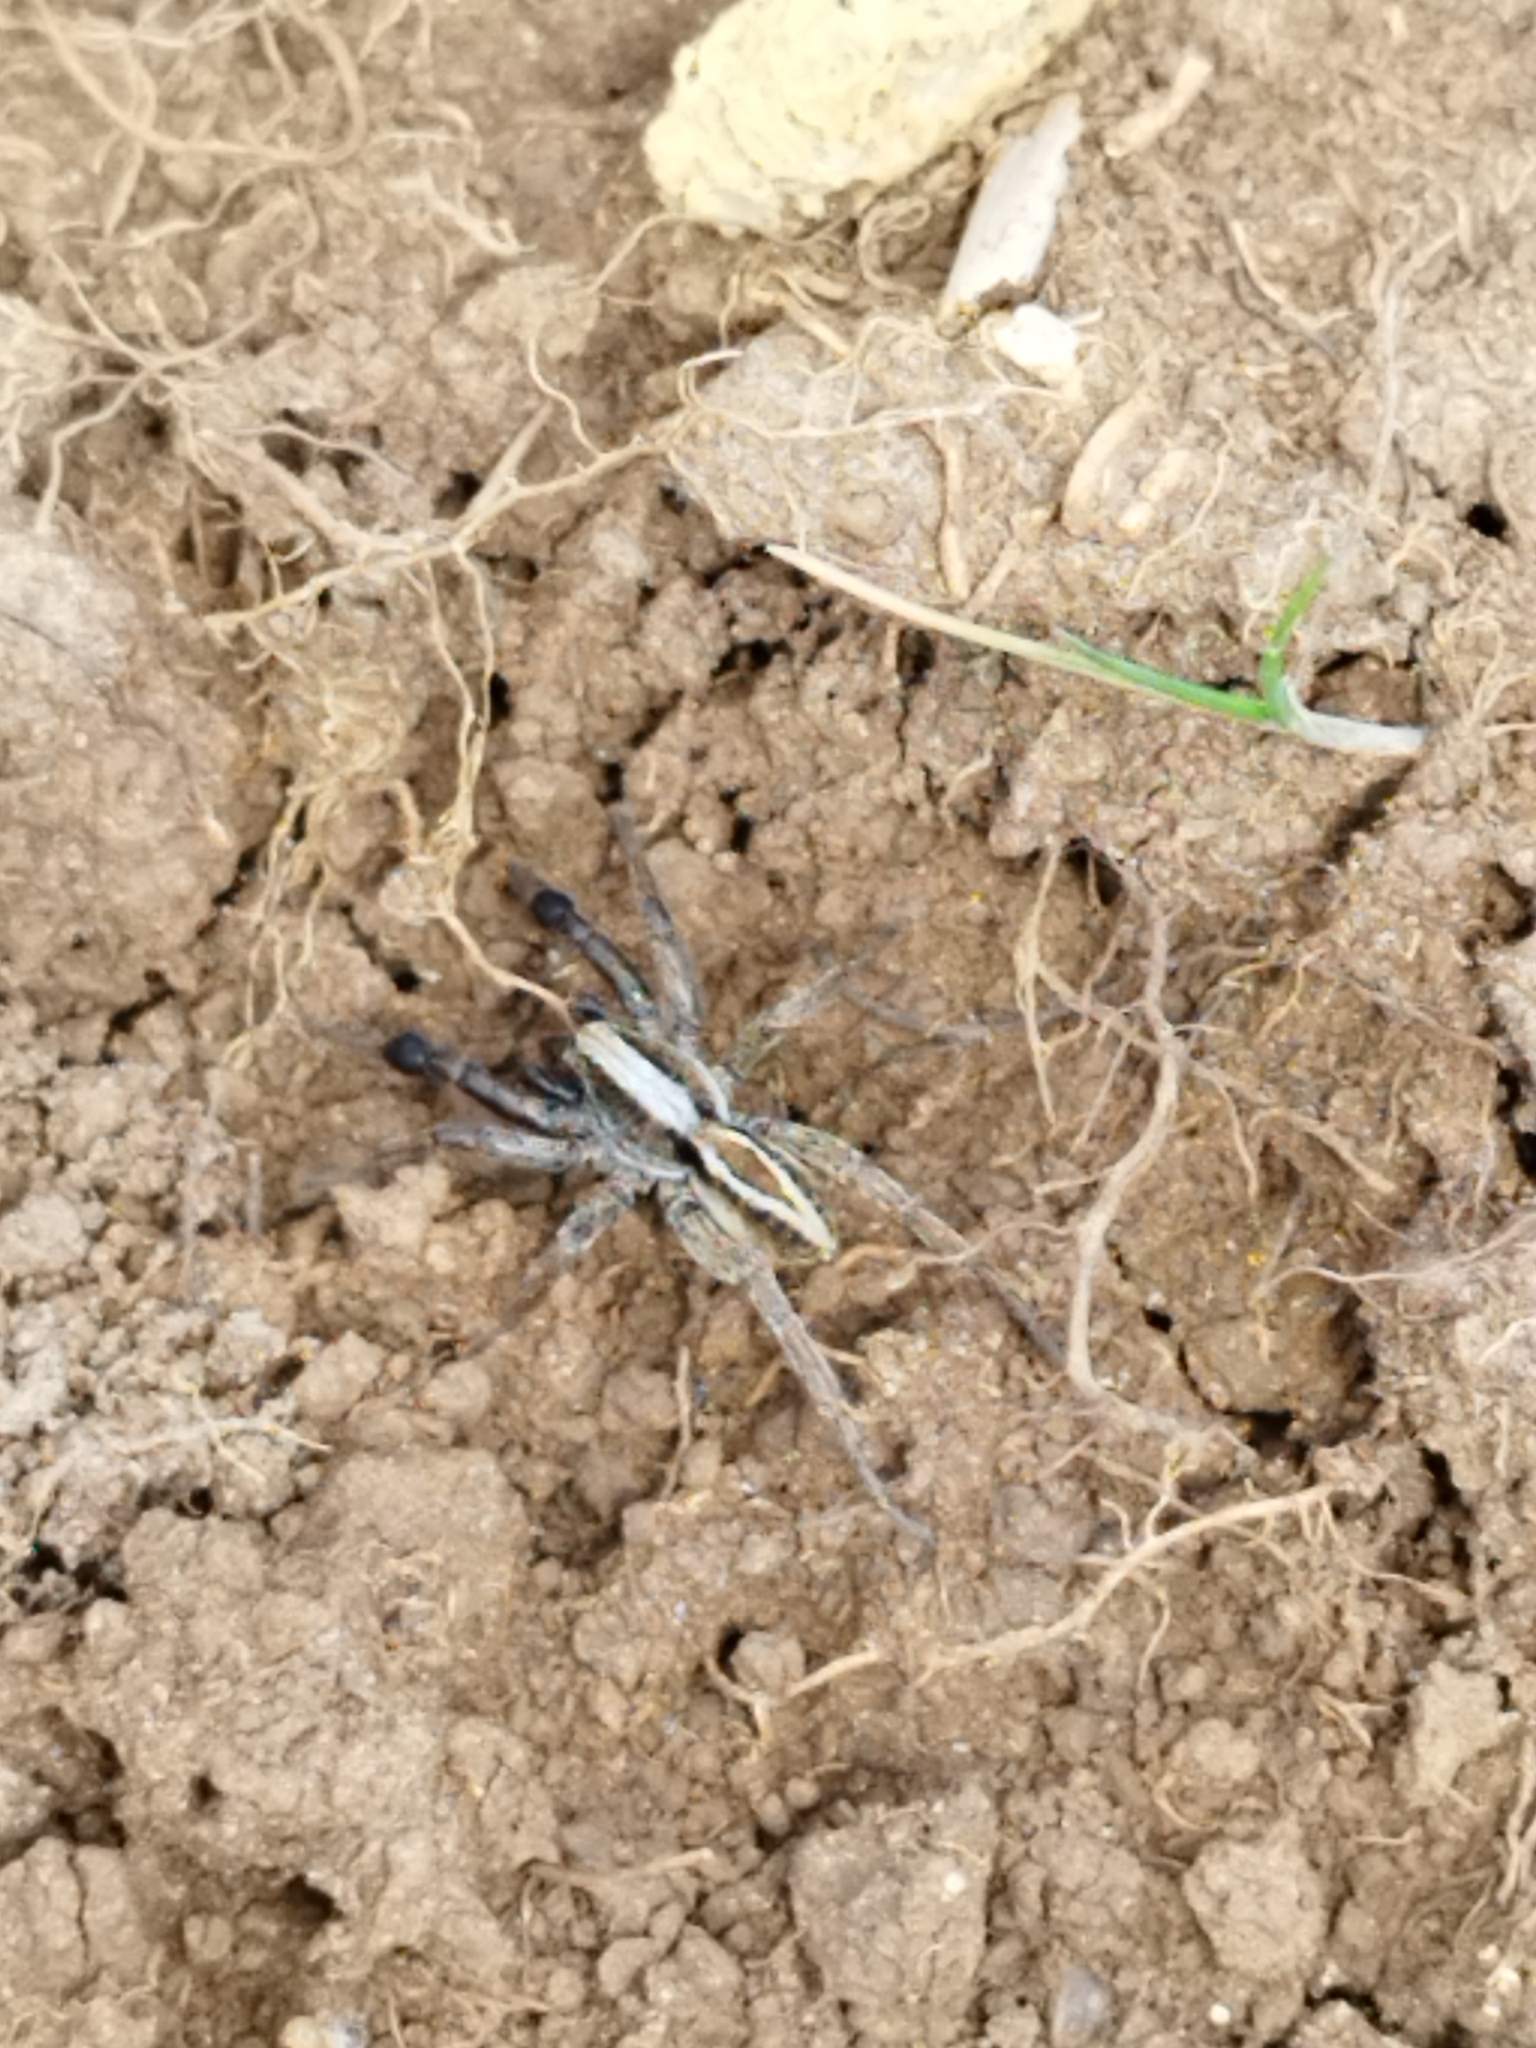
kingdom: Animalia
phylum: Arthropoda
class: Arachnida
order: Araneae
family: Lycosidae
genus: Alopecosa
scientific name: Alopecosa cuneata
